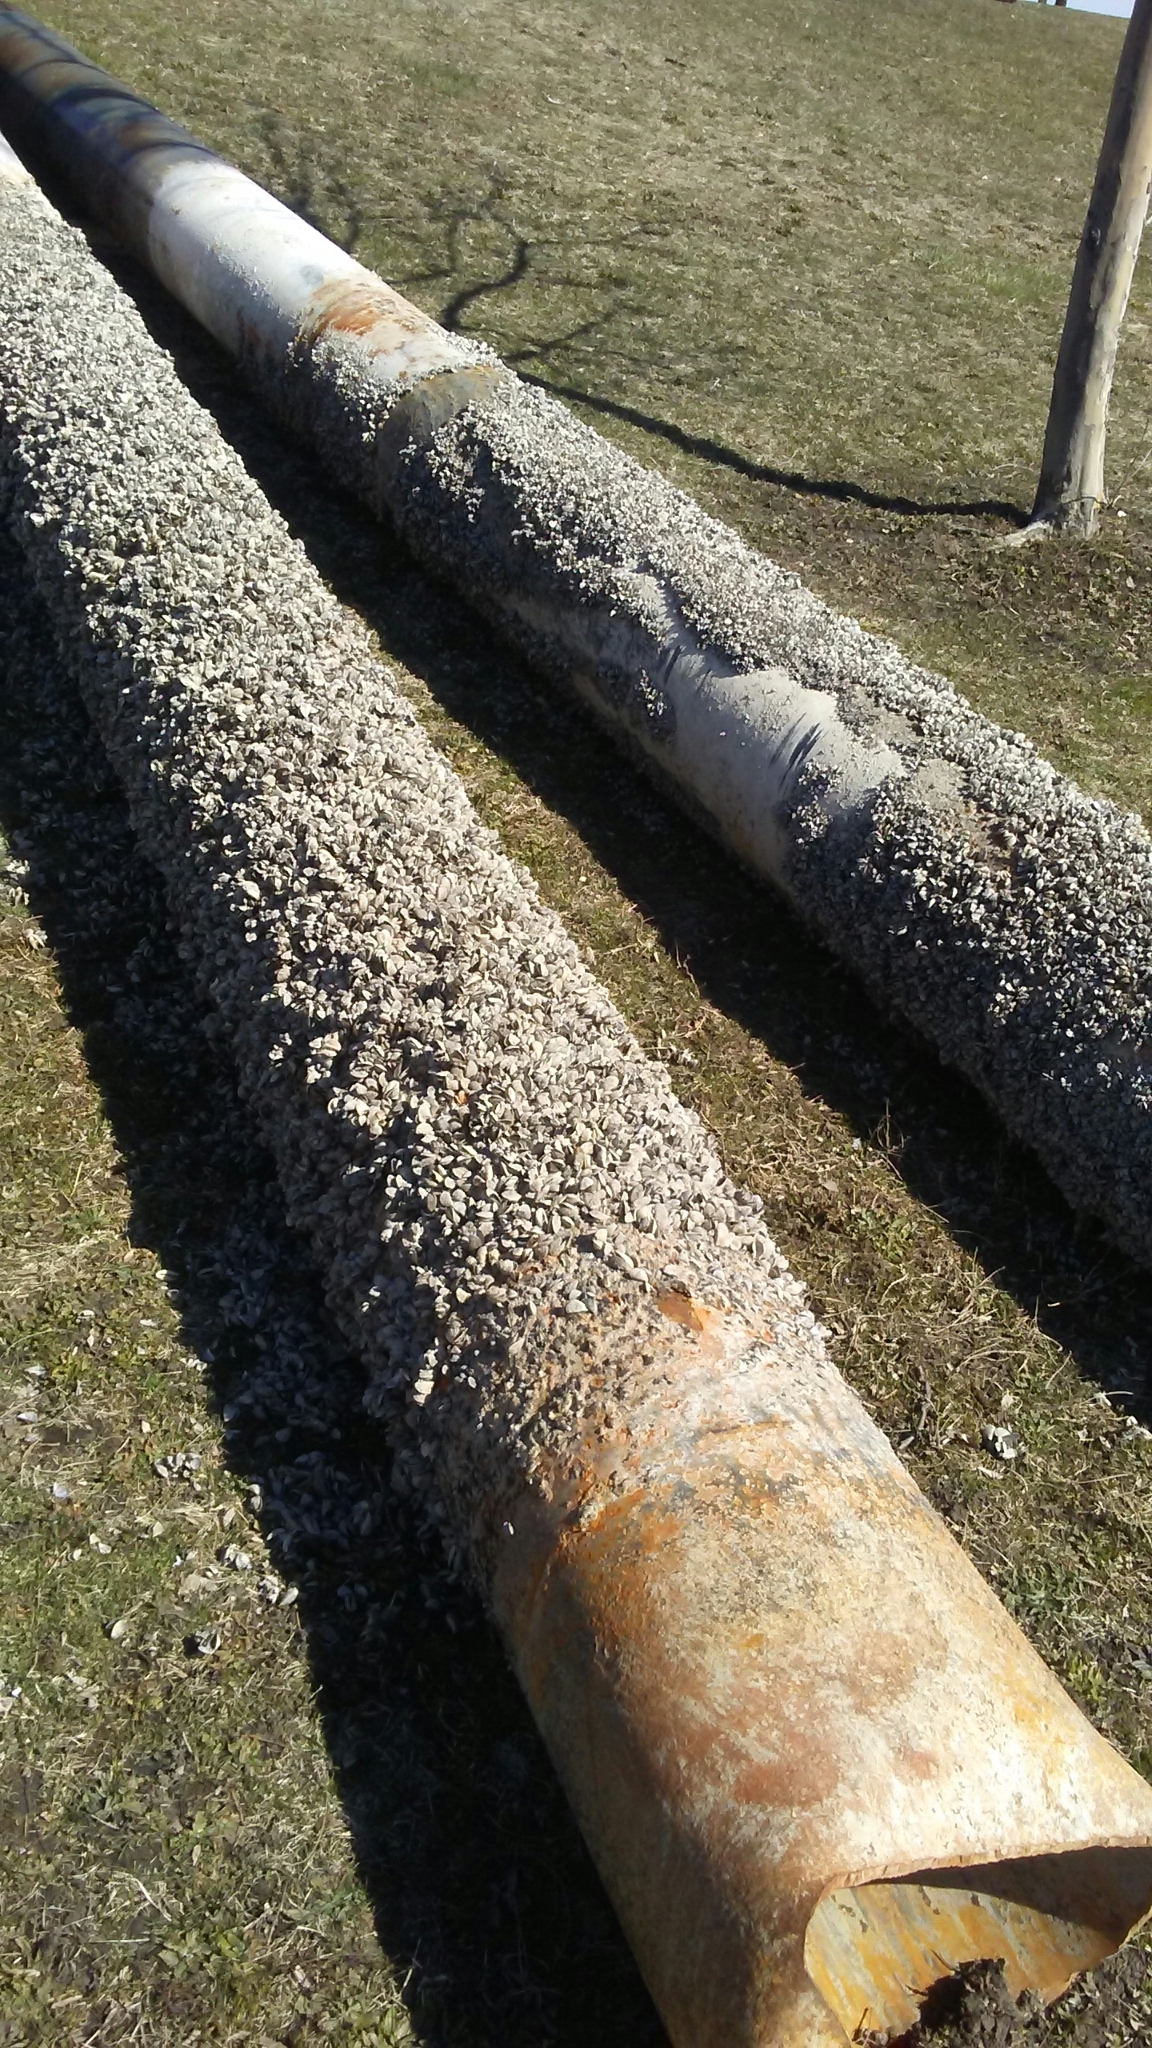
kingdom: Animalia
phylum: Mollusca
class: Bivalvia
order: Myida
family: Dreissenidae
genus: Dreissena
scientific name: Dreissena bugensis
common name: Quagga mussel
